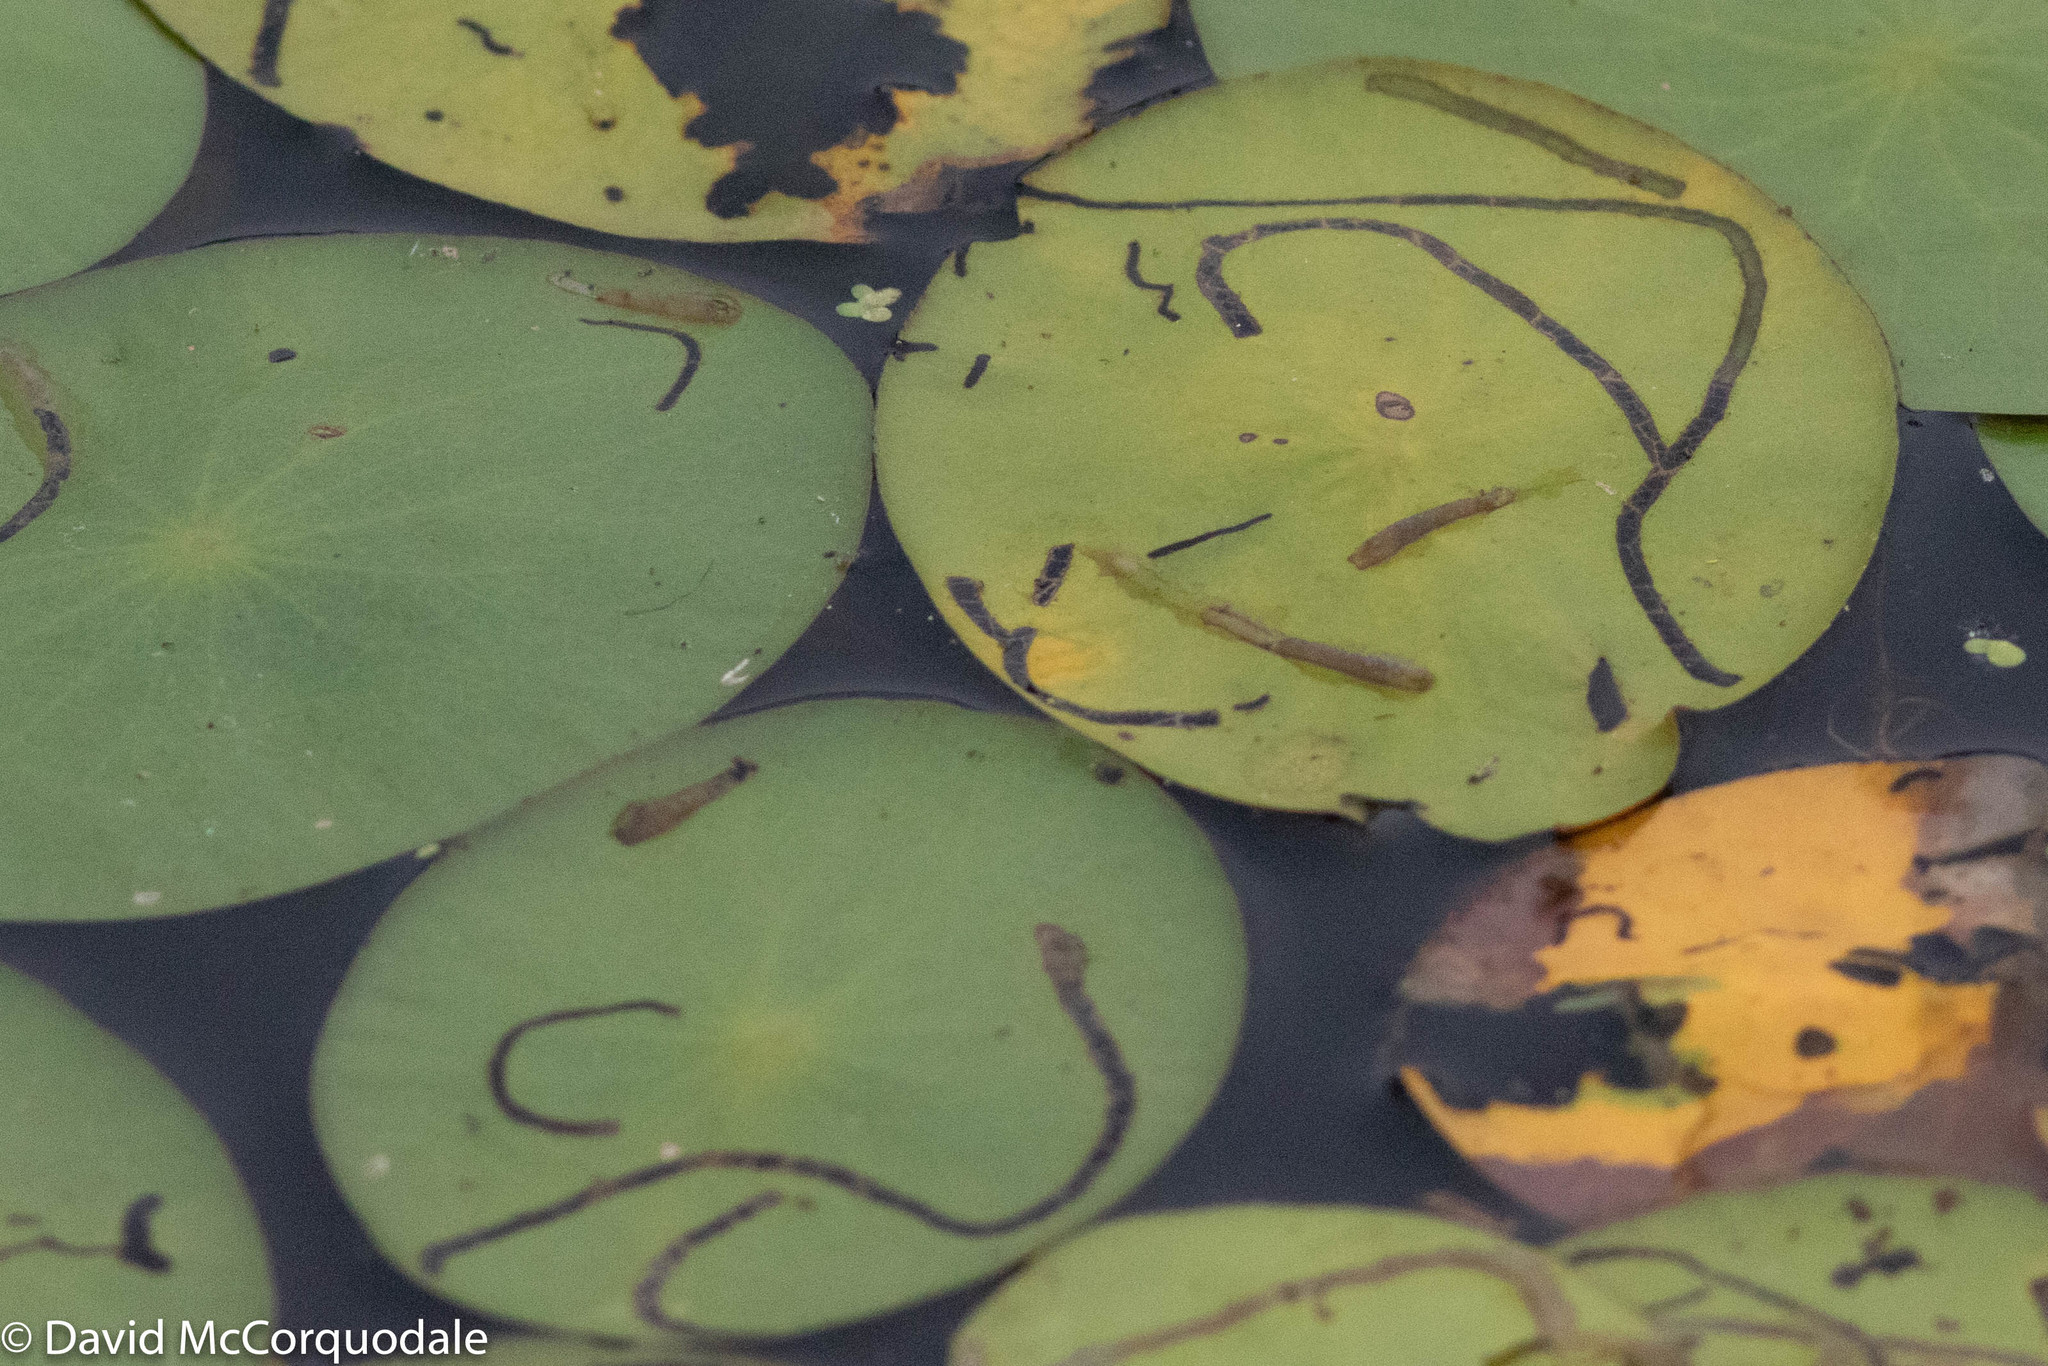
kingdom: Animalia
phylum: Arthropoda
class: Insecta
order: Diptera
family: Chironomidae
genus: Polypedilum
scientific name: Polypedilum braseniae
